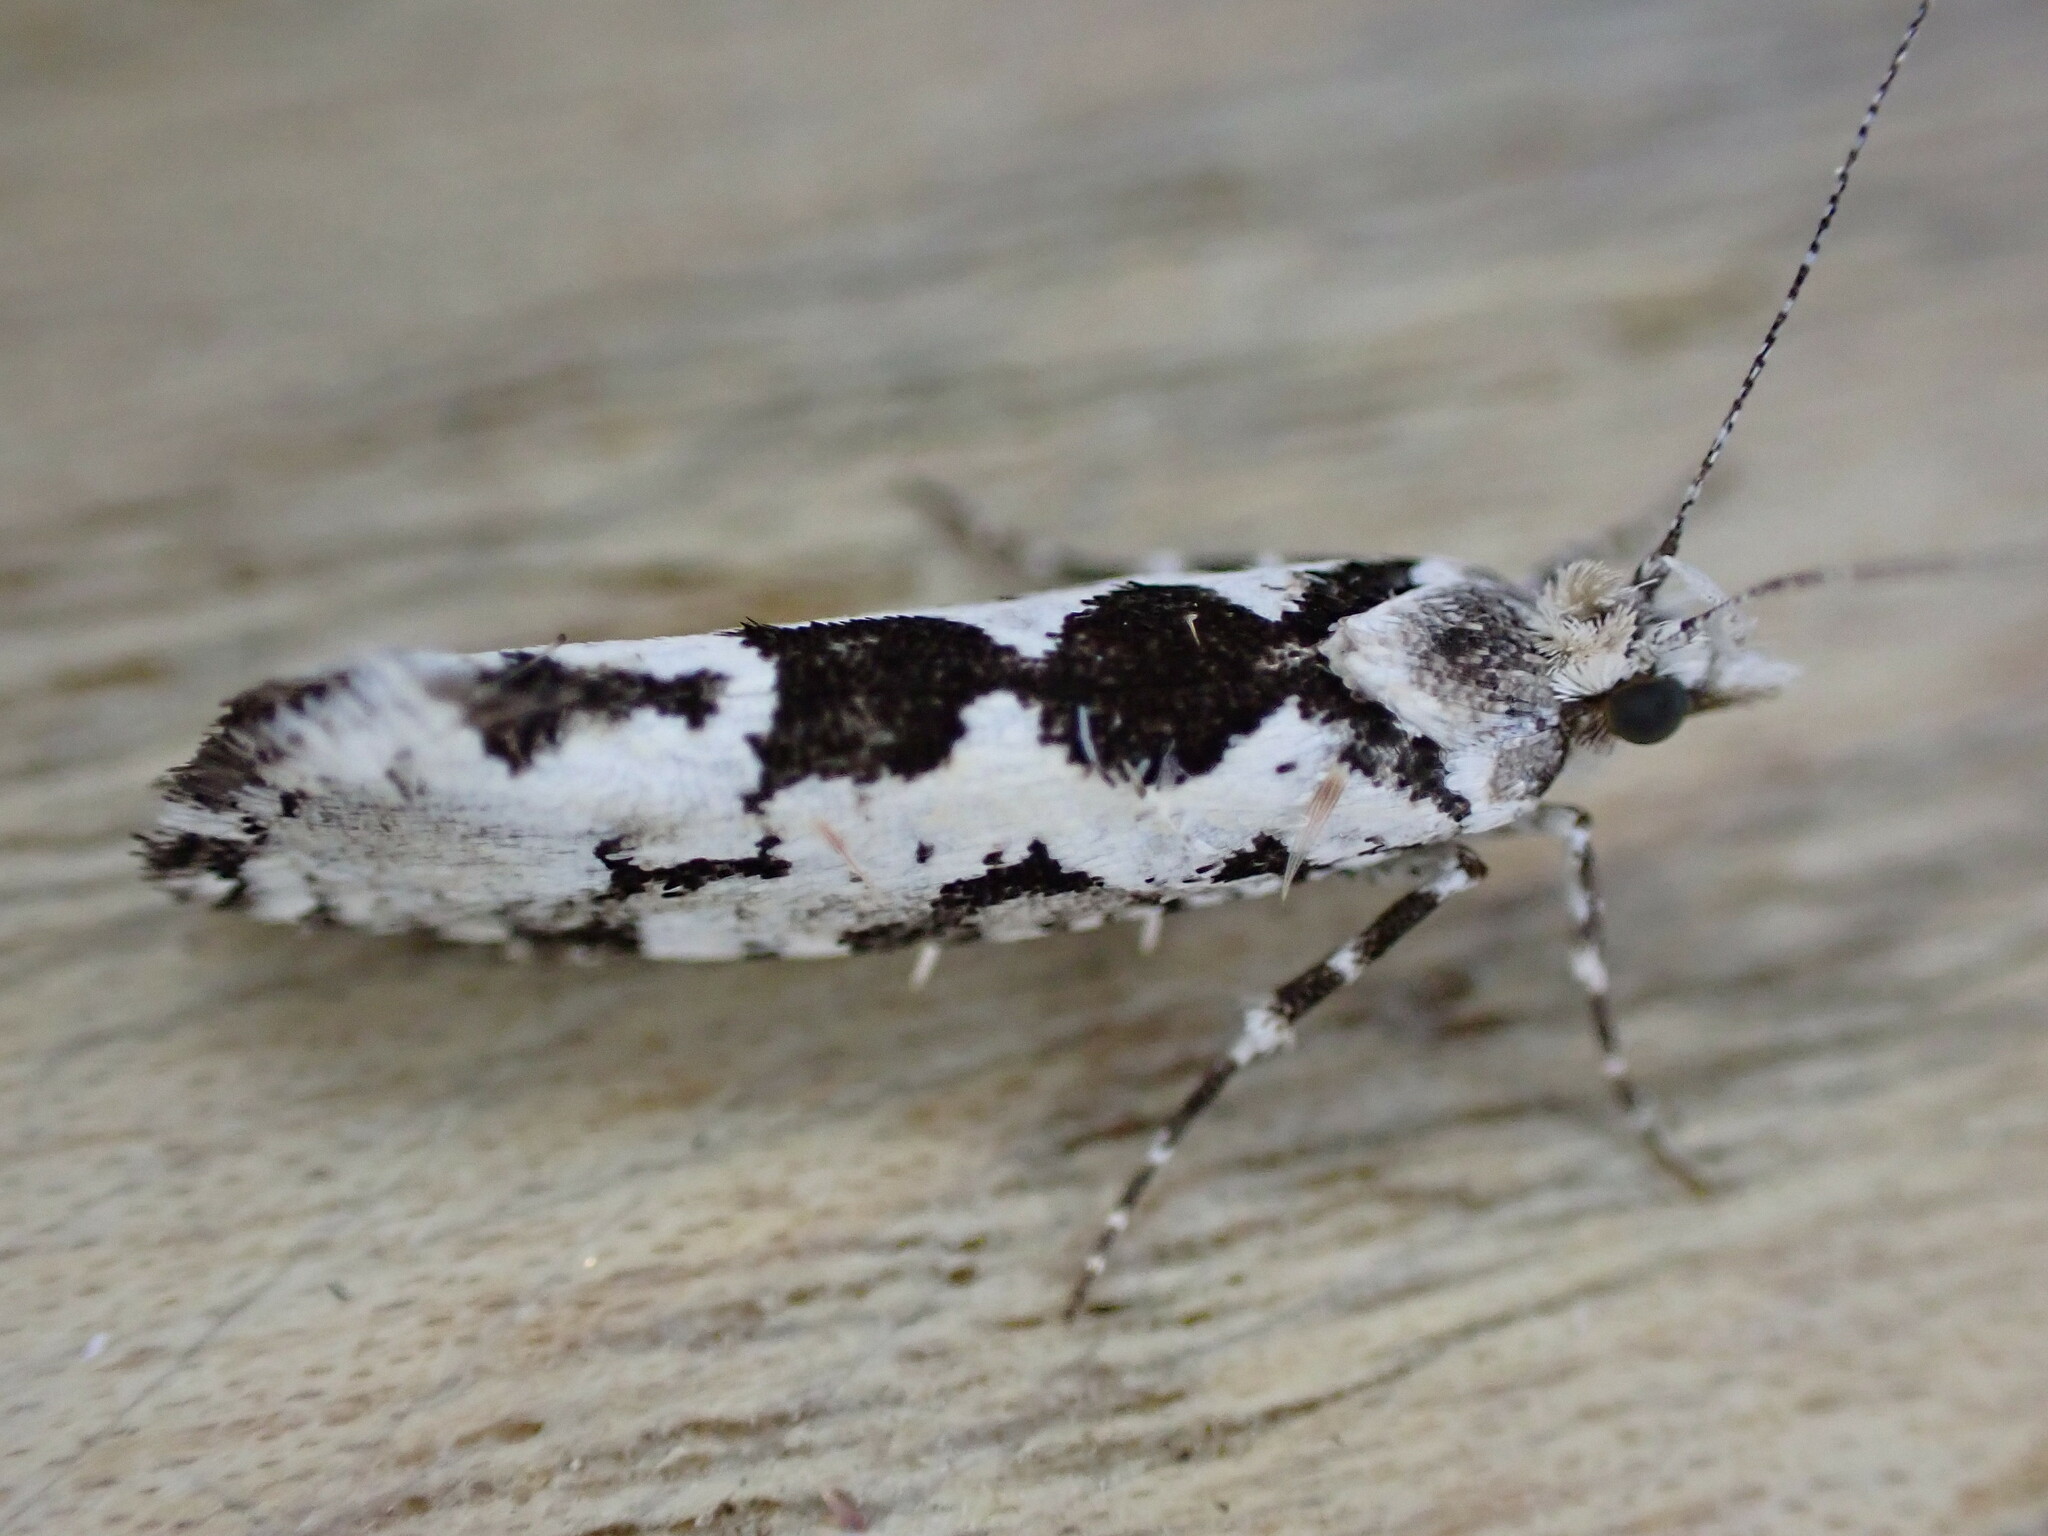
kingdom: Animalia
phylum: Arthropoda
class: Insecta
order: Lepidoptera
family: Plutellidae
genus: Ypsolophus
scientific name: Ypsolophus sequella
